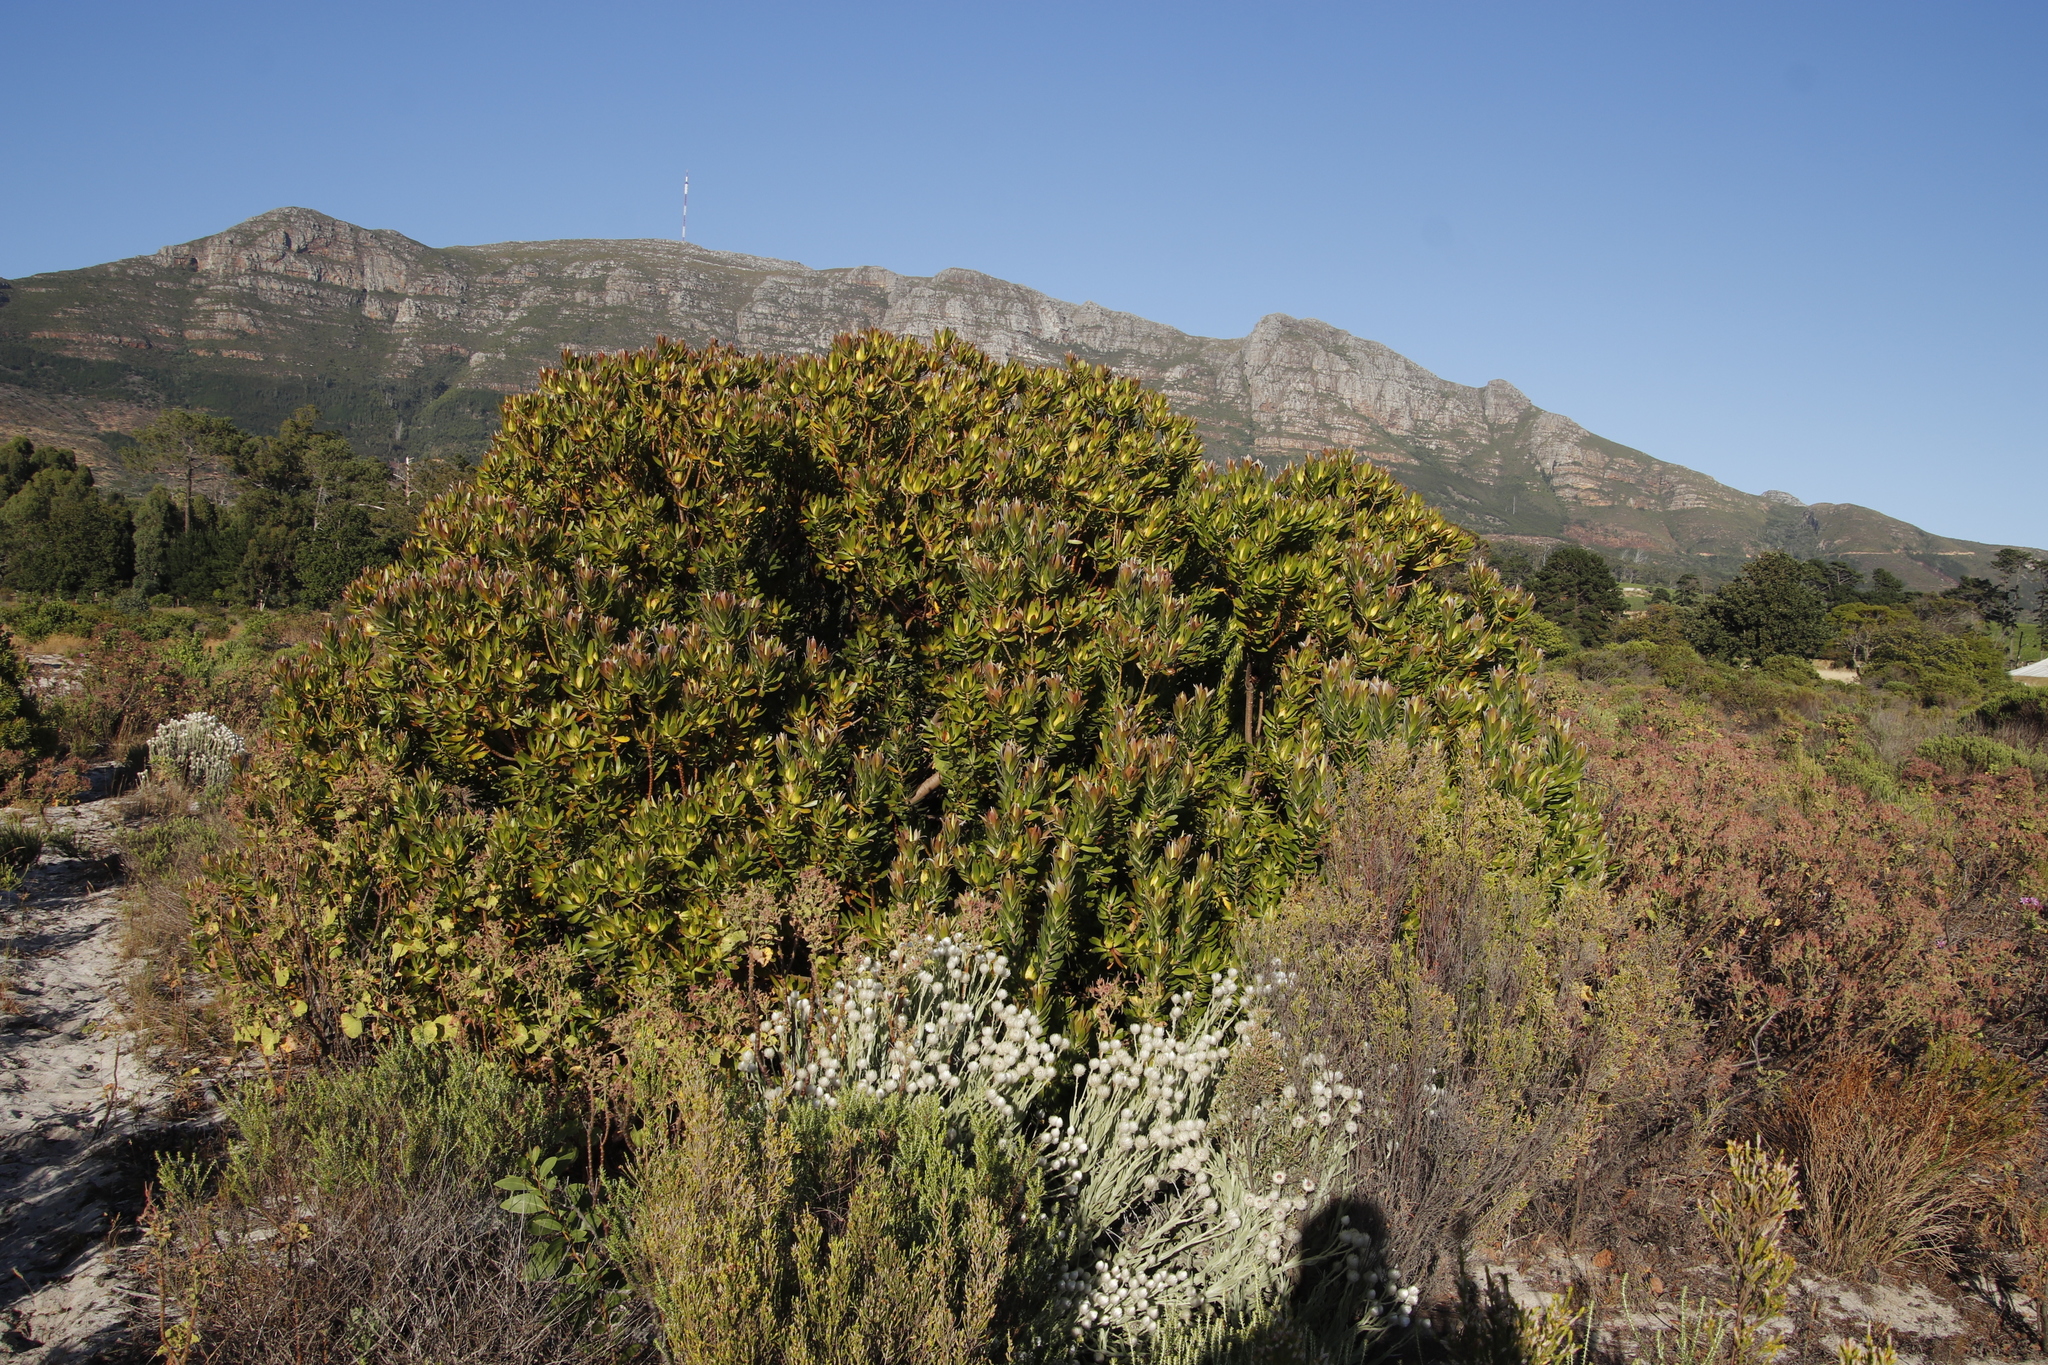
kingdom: Plantae
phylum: Tracheophyta
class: Magnoliopsida
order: Proteales
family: Proteaceae
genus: Leucadendron
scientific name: Leucadendron laureolum
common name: Golden sunshinebush
